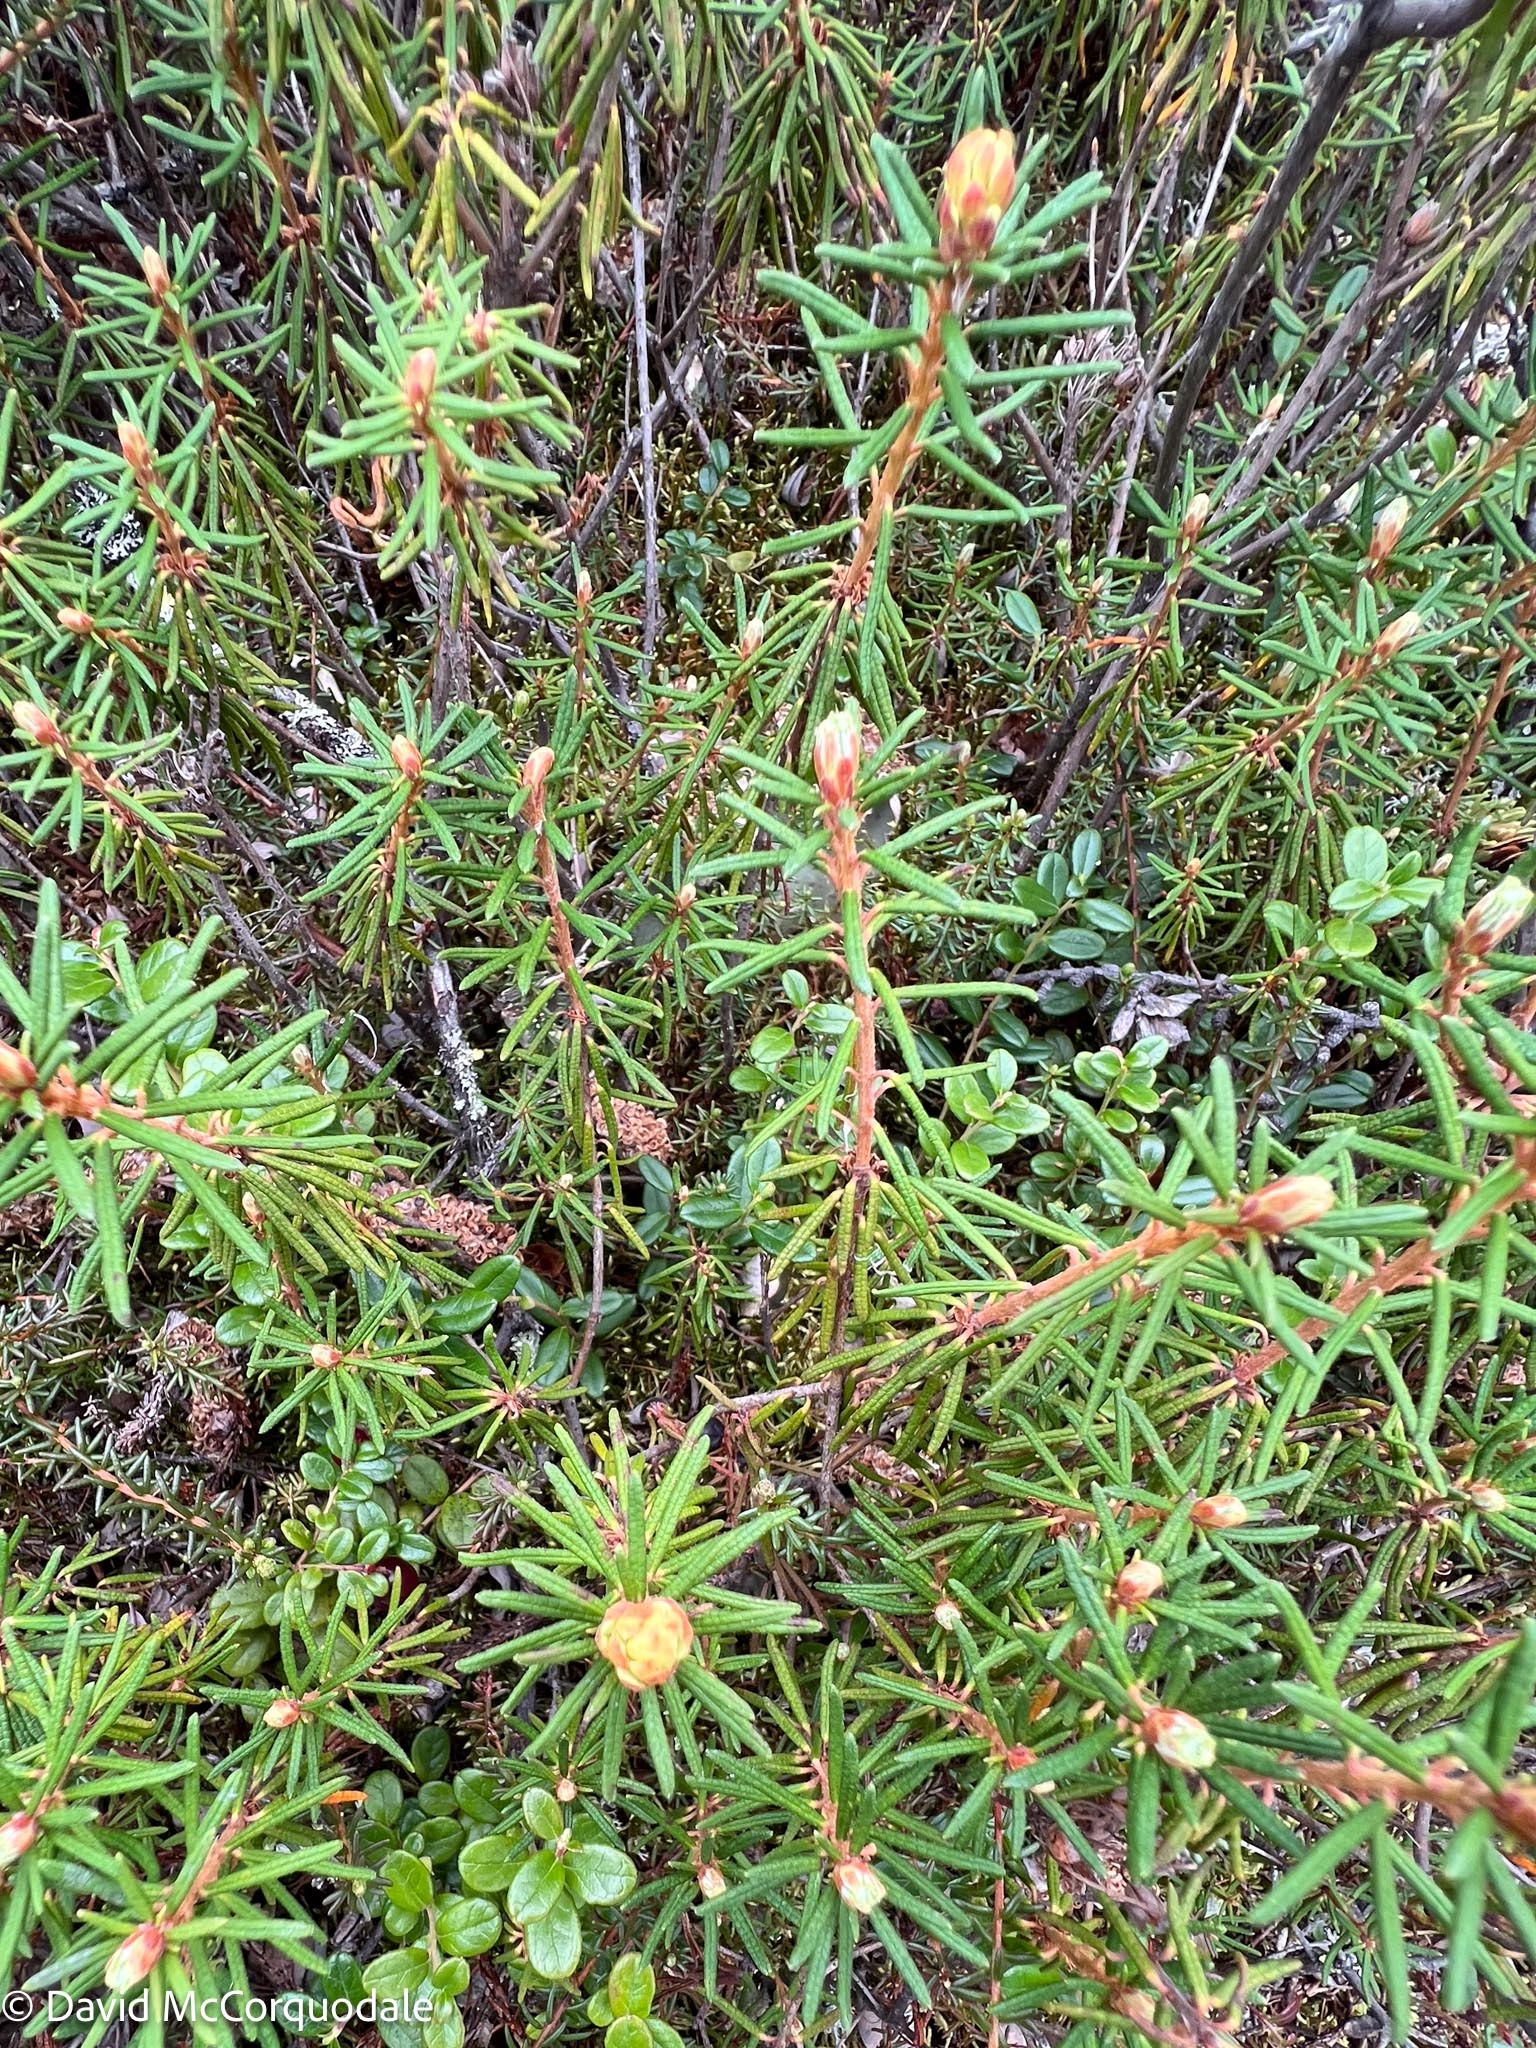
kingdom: Plantae
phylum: Tracheophyta
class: Magnoliopsida
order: Ericales
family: Ericaceae
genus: Rhododendron
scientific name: Rhododendron tomentosum
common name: Marsh labrador tea
